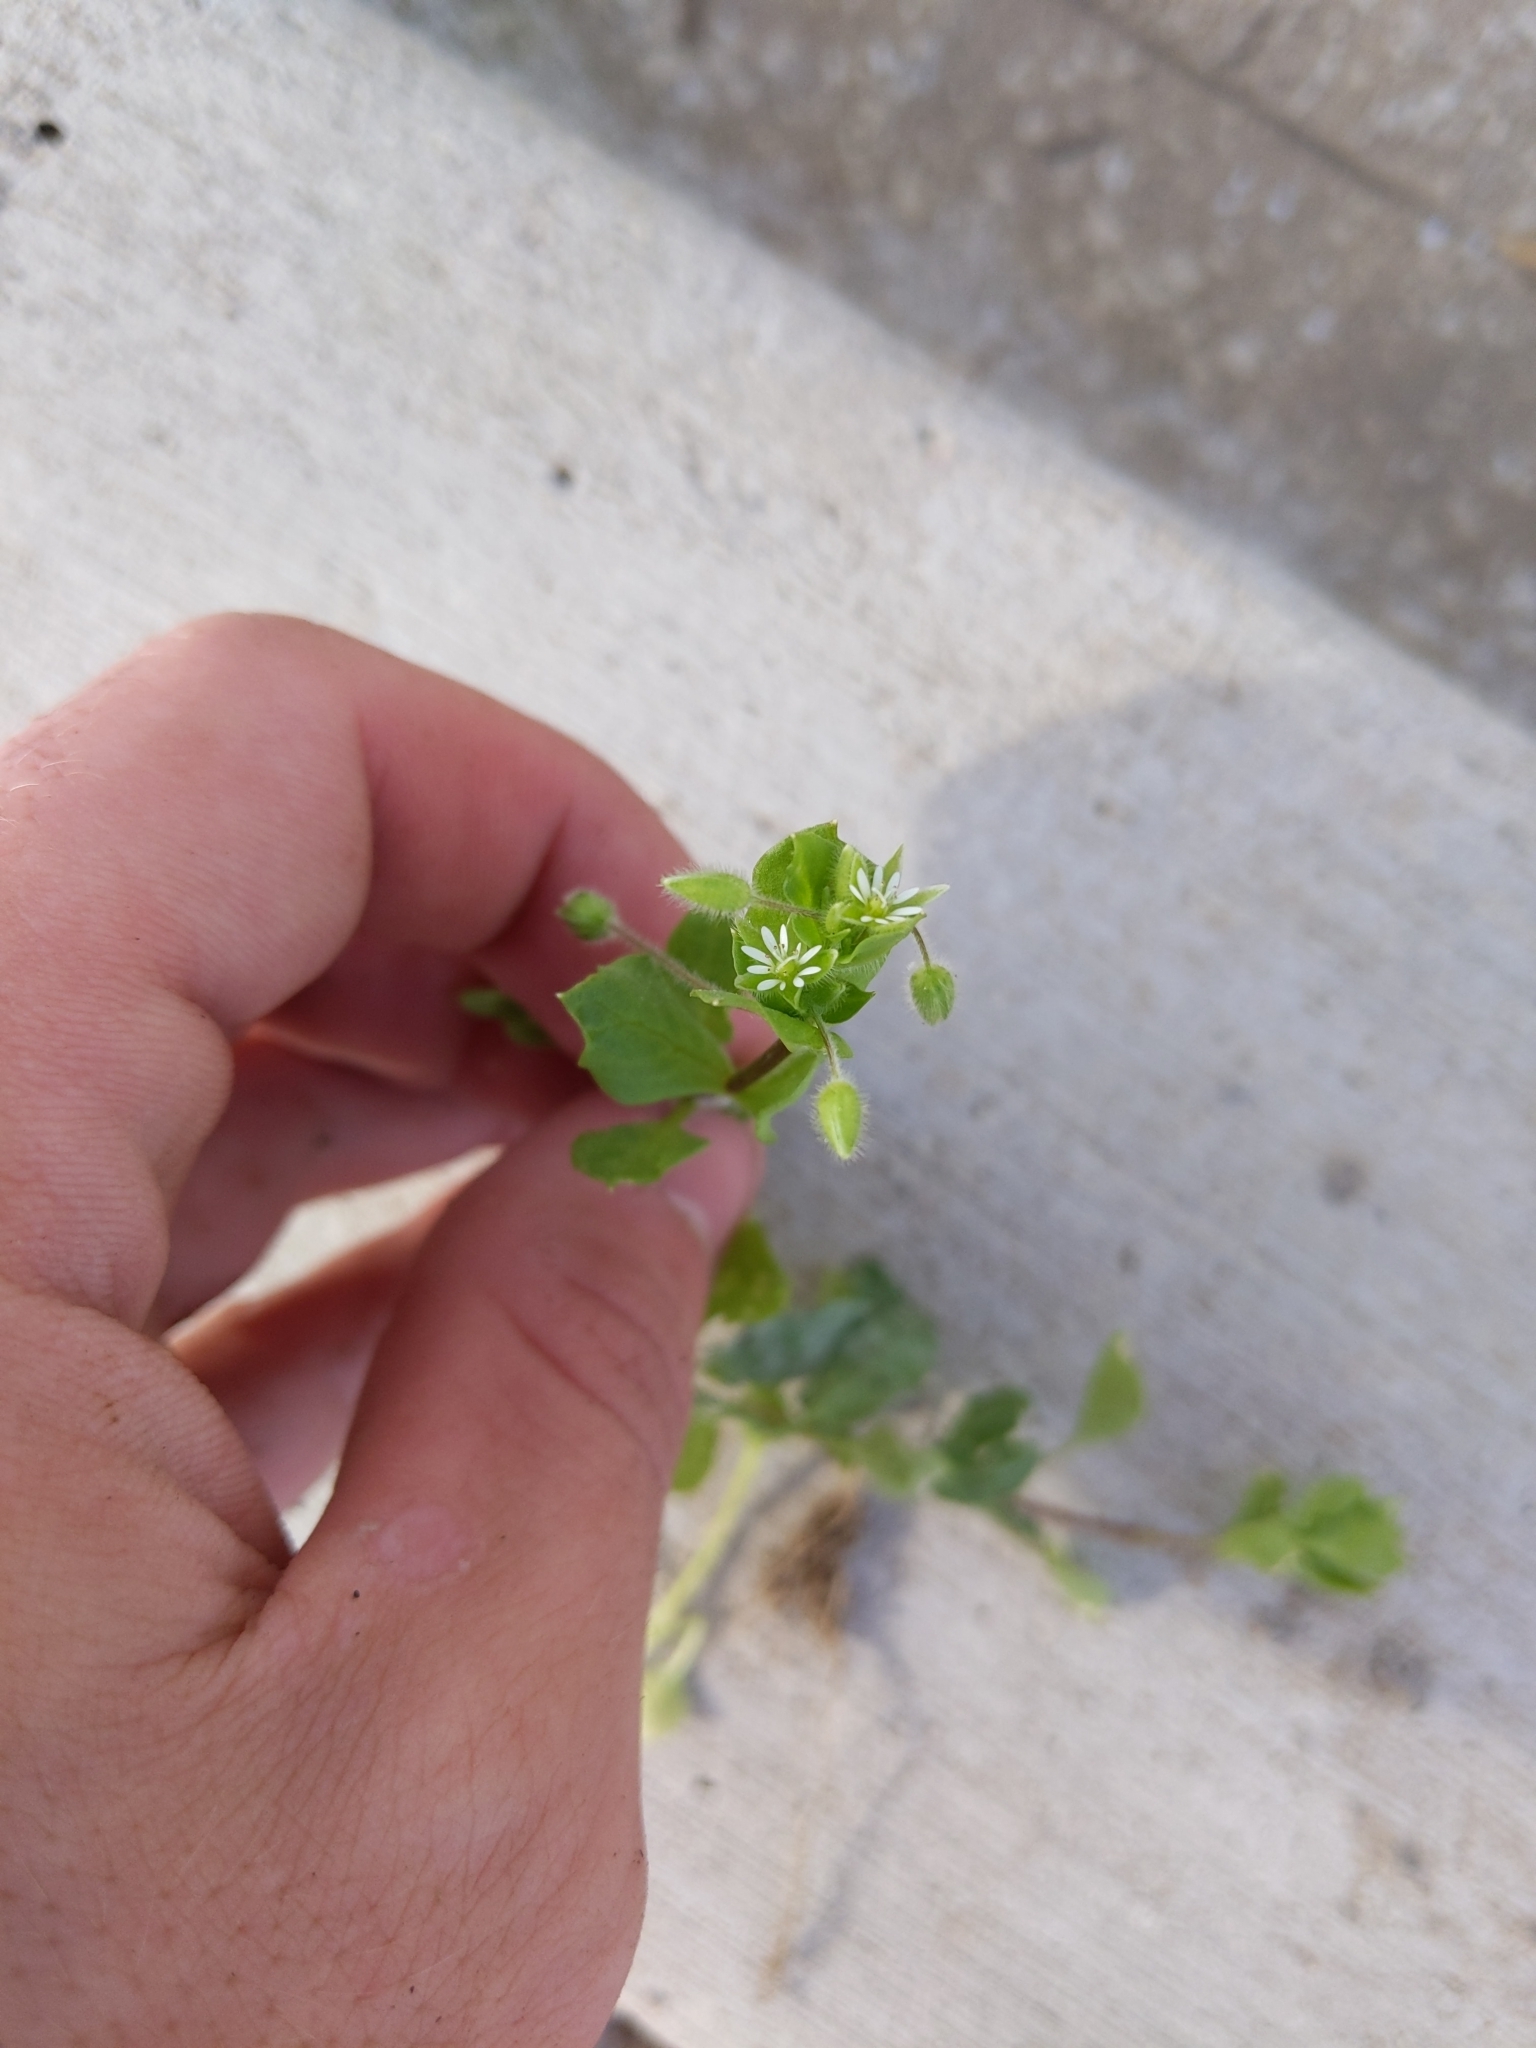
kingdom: Plantae
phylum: Tracheophyta
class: Magnoliopsida
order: Caryophyllales
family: Caryophyllaceae
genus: Stellaria
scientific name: Stellaria media
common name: Common chickweed
